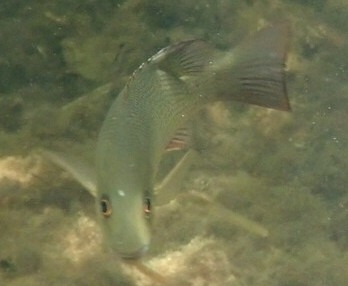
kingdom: Animalia
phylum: Chordata
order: Perciformes
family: Lutjanidae
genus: Lutjanus
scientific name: Lutjanus griseus
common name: Gray snapper
